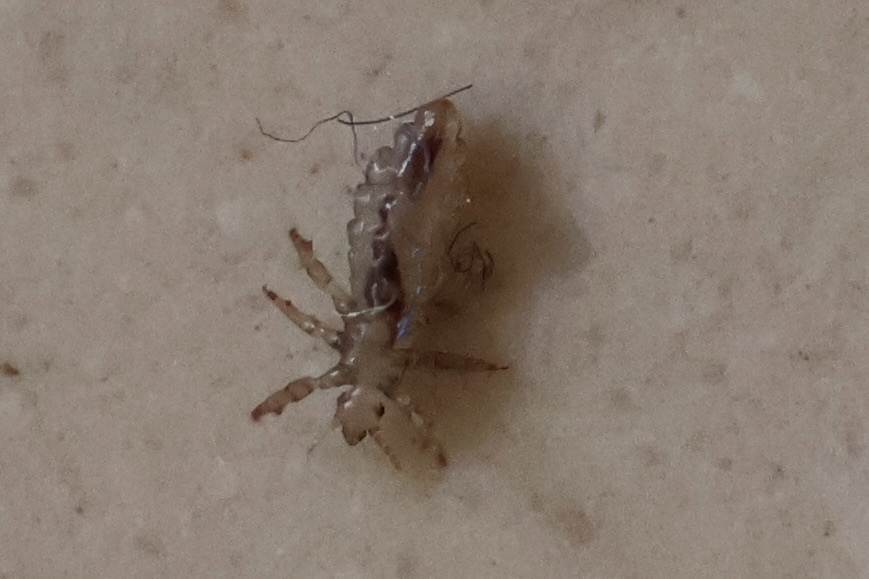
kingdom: Animalia
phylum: Arthropoda
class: Insecta
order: Psocodea
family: Pediculidae
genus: Pediculus
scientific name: Pediculus humanus
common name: Body louse
